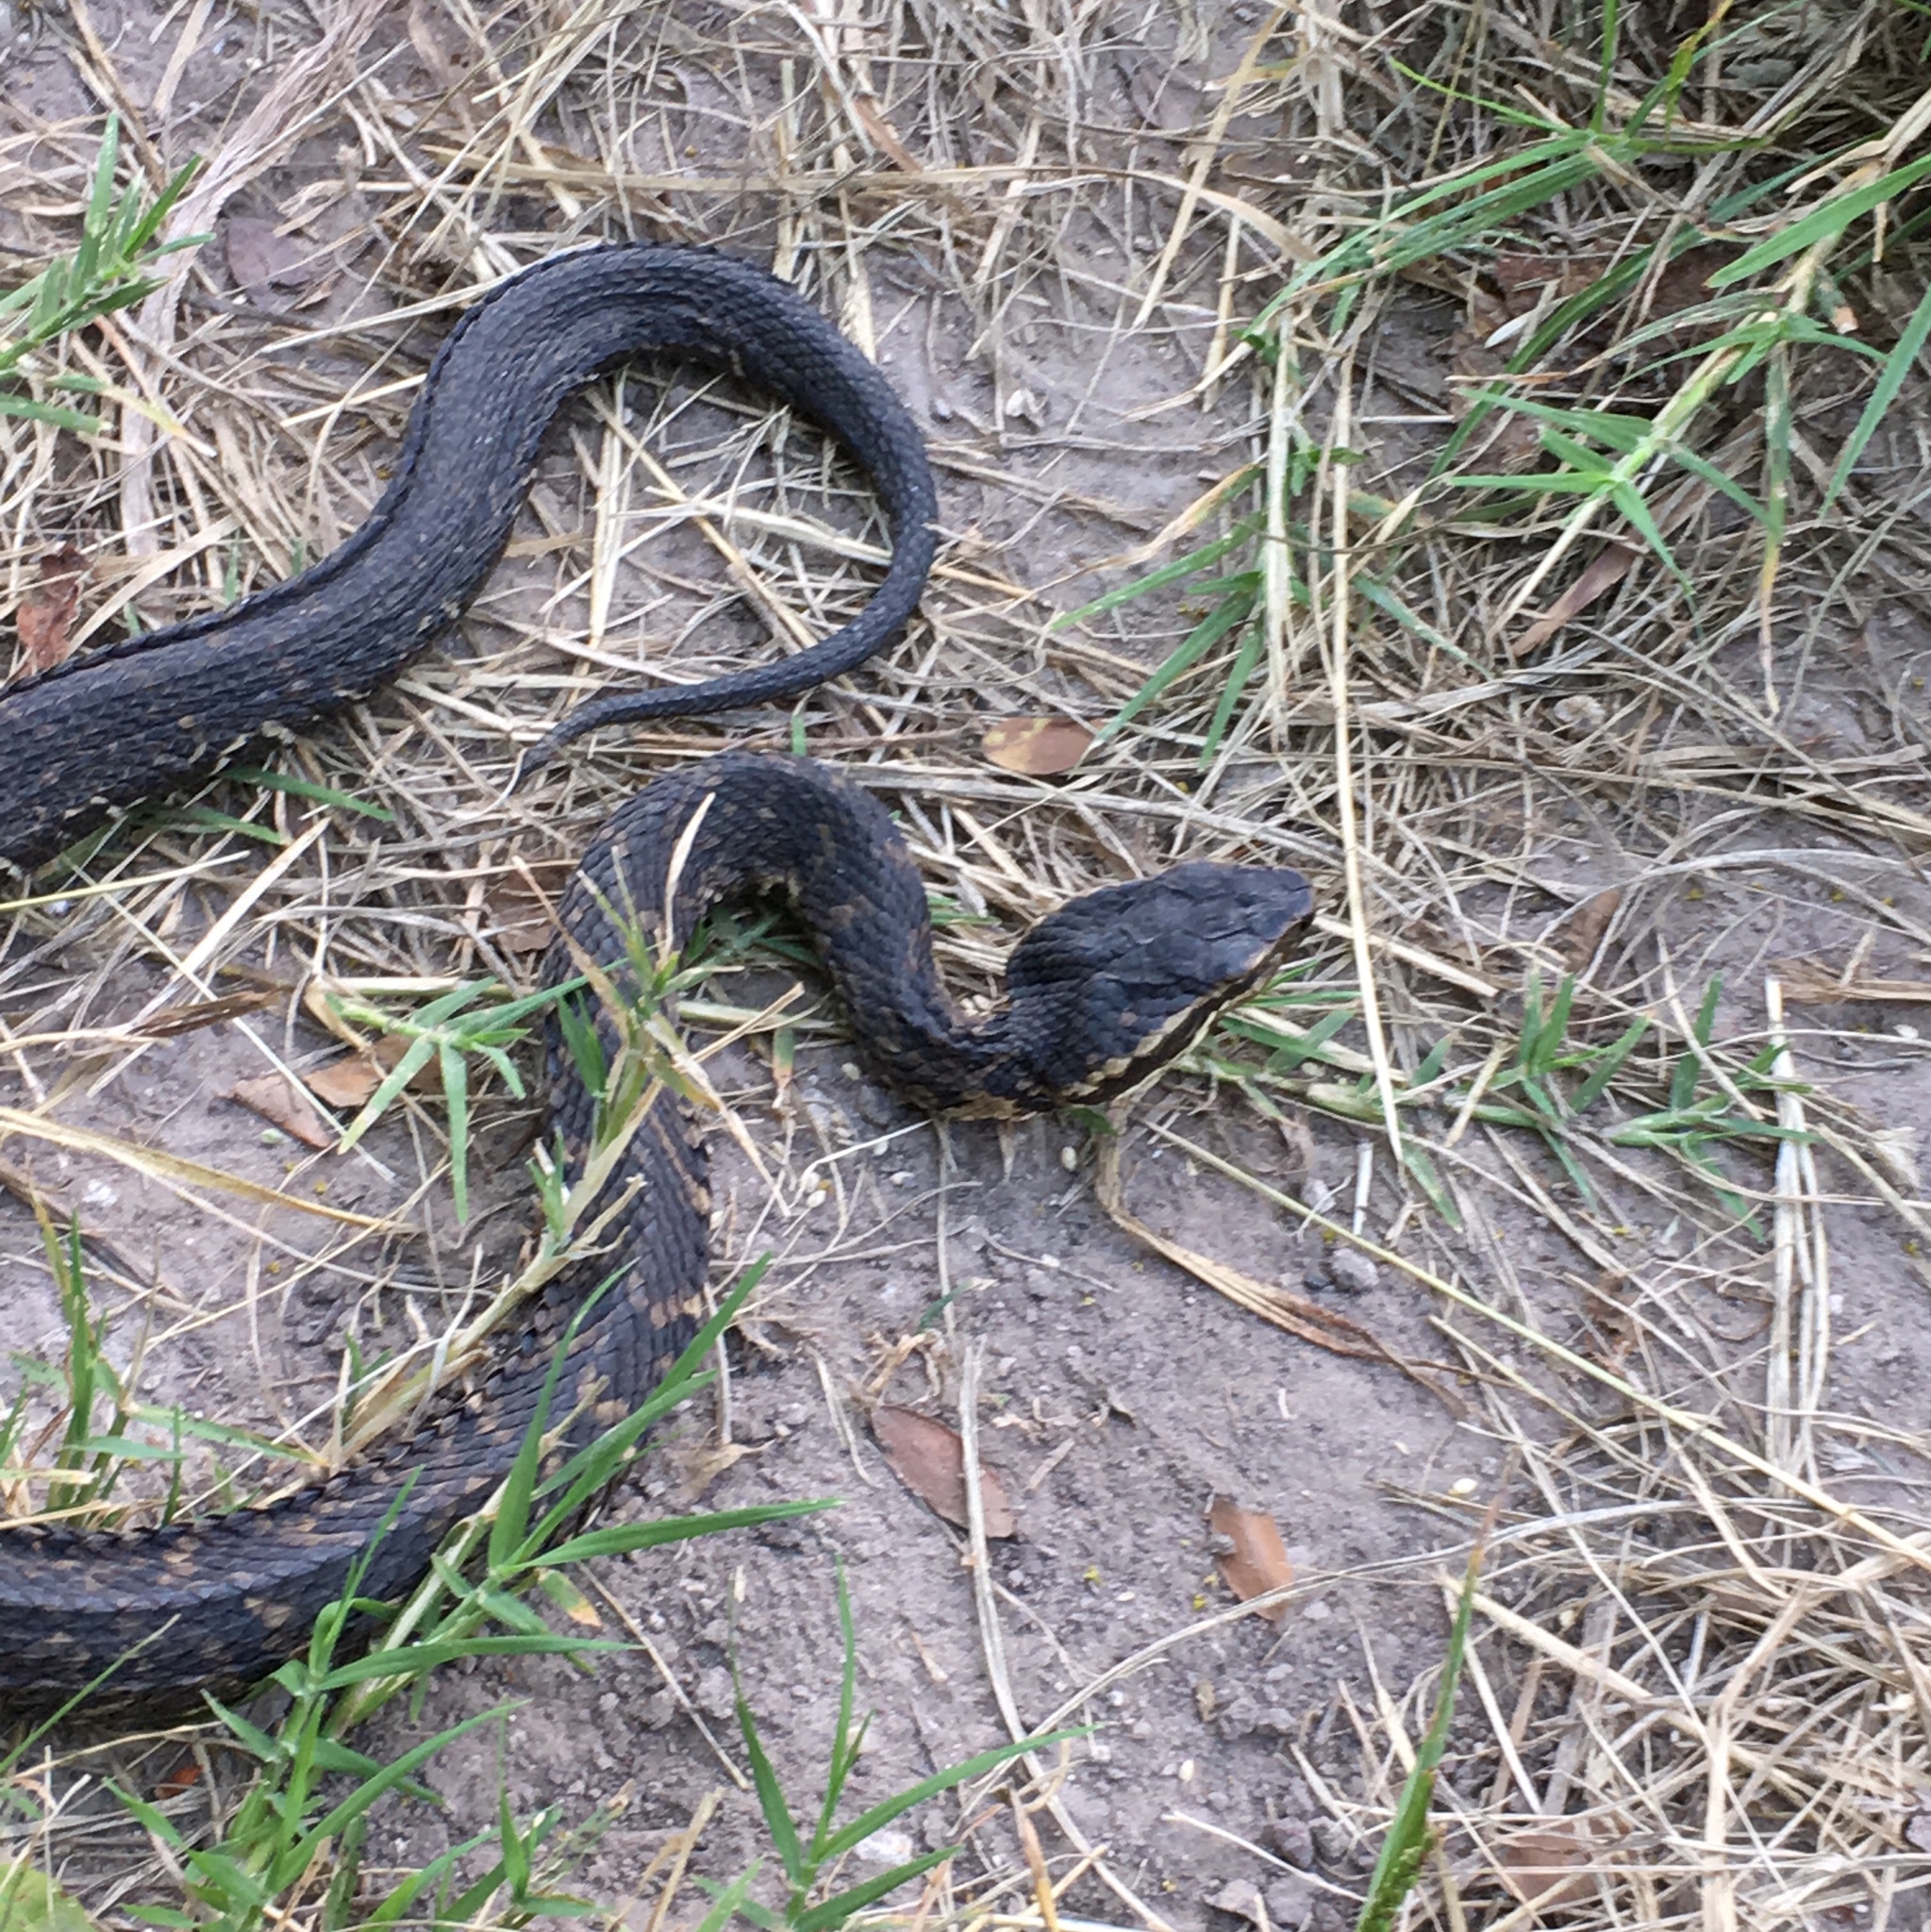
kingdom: Animalia
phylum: Chordata
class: Squamata
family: Viperidae
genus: Agkistrodon
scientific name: Agkistrodon piscivorus
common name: Cottonmouth
